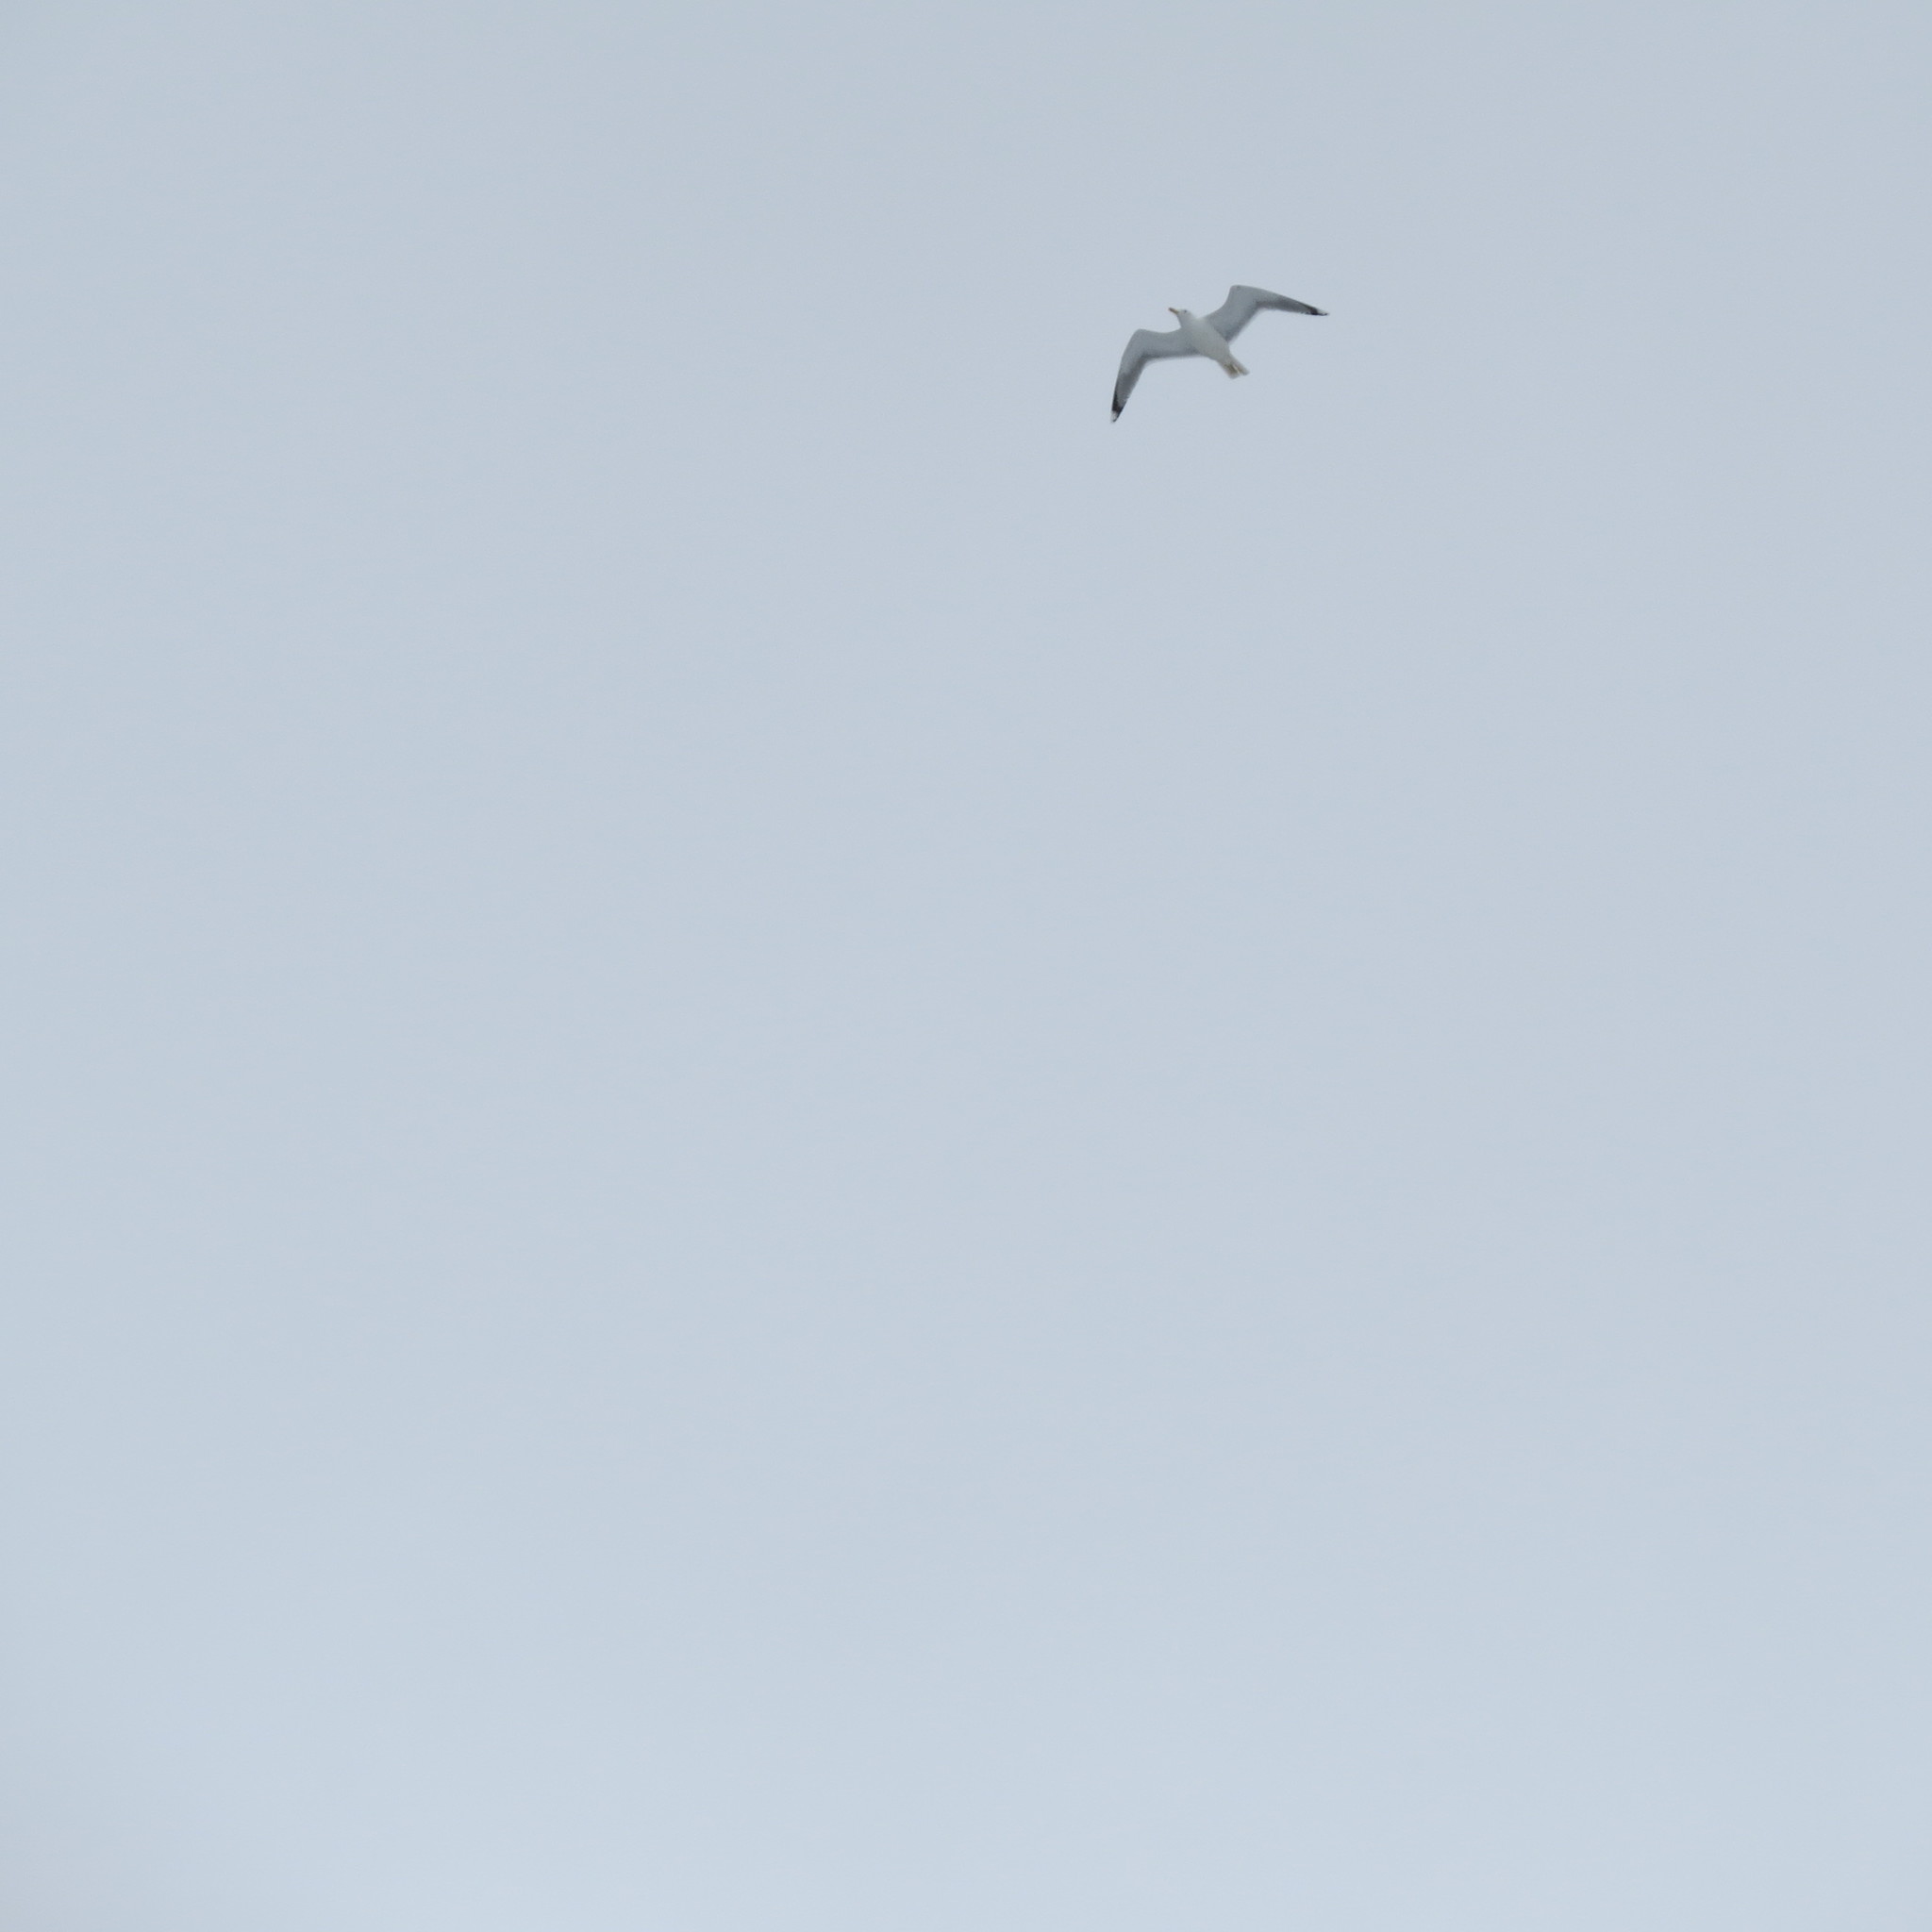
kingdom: Animalia
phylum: Chordata
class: Aves
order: Charadriiformes
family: Laridae
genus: Larus
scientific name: Larus argentatus
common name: Herring gull
